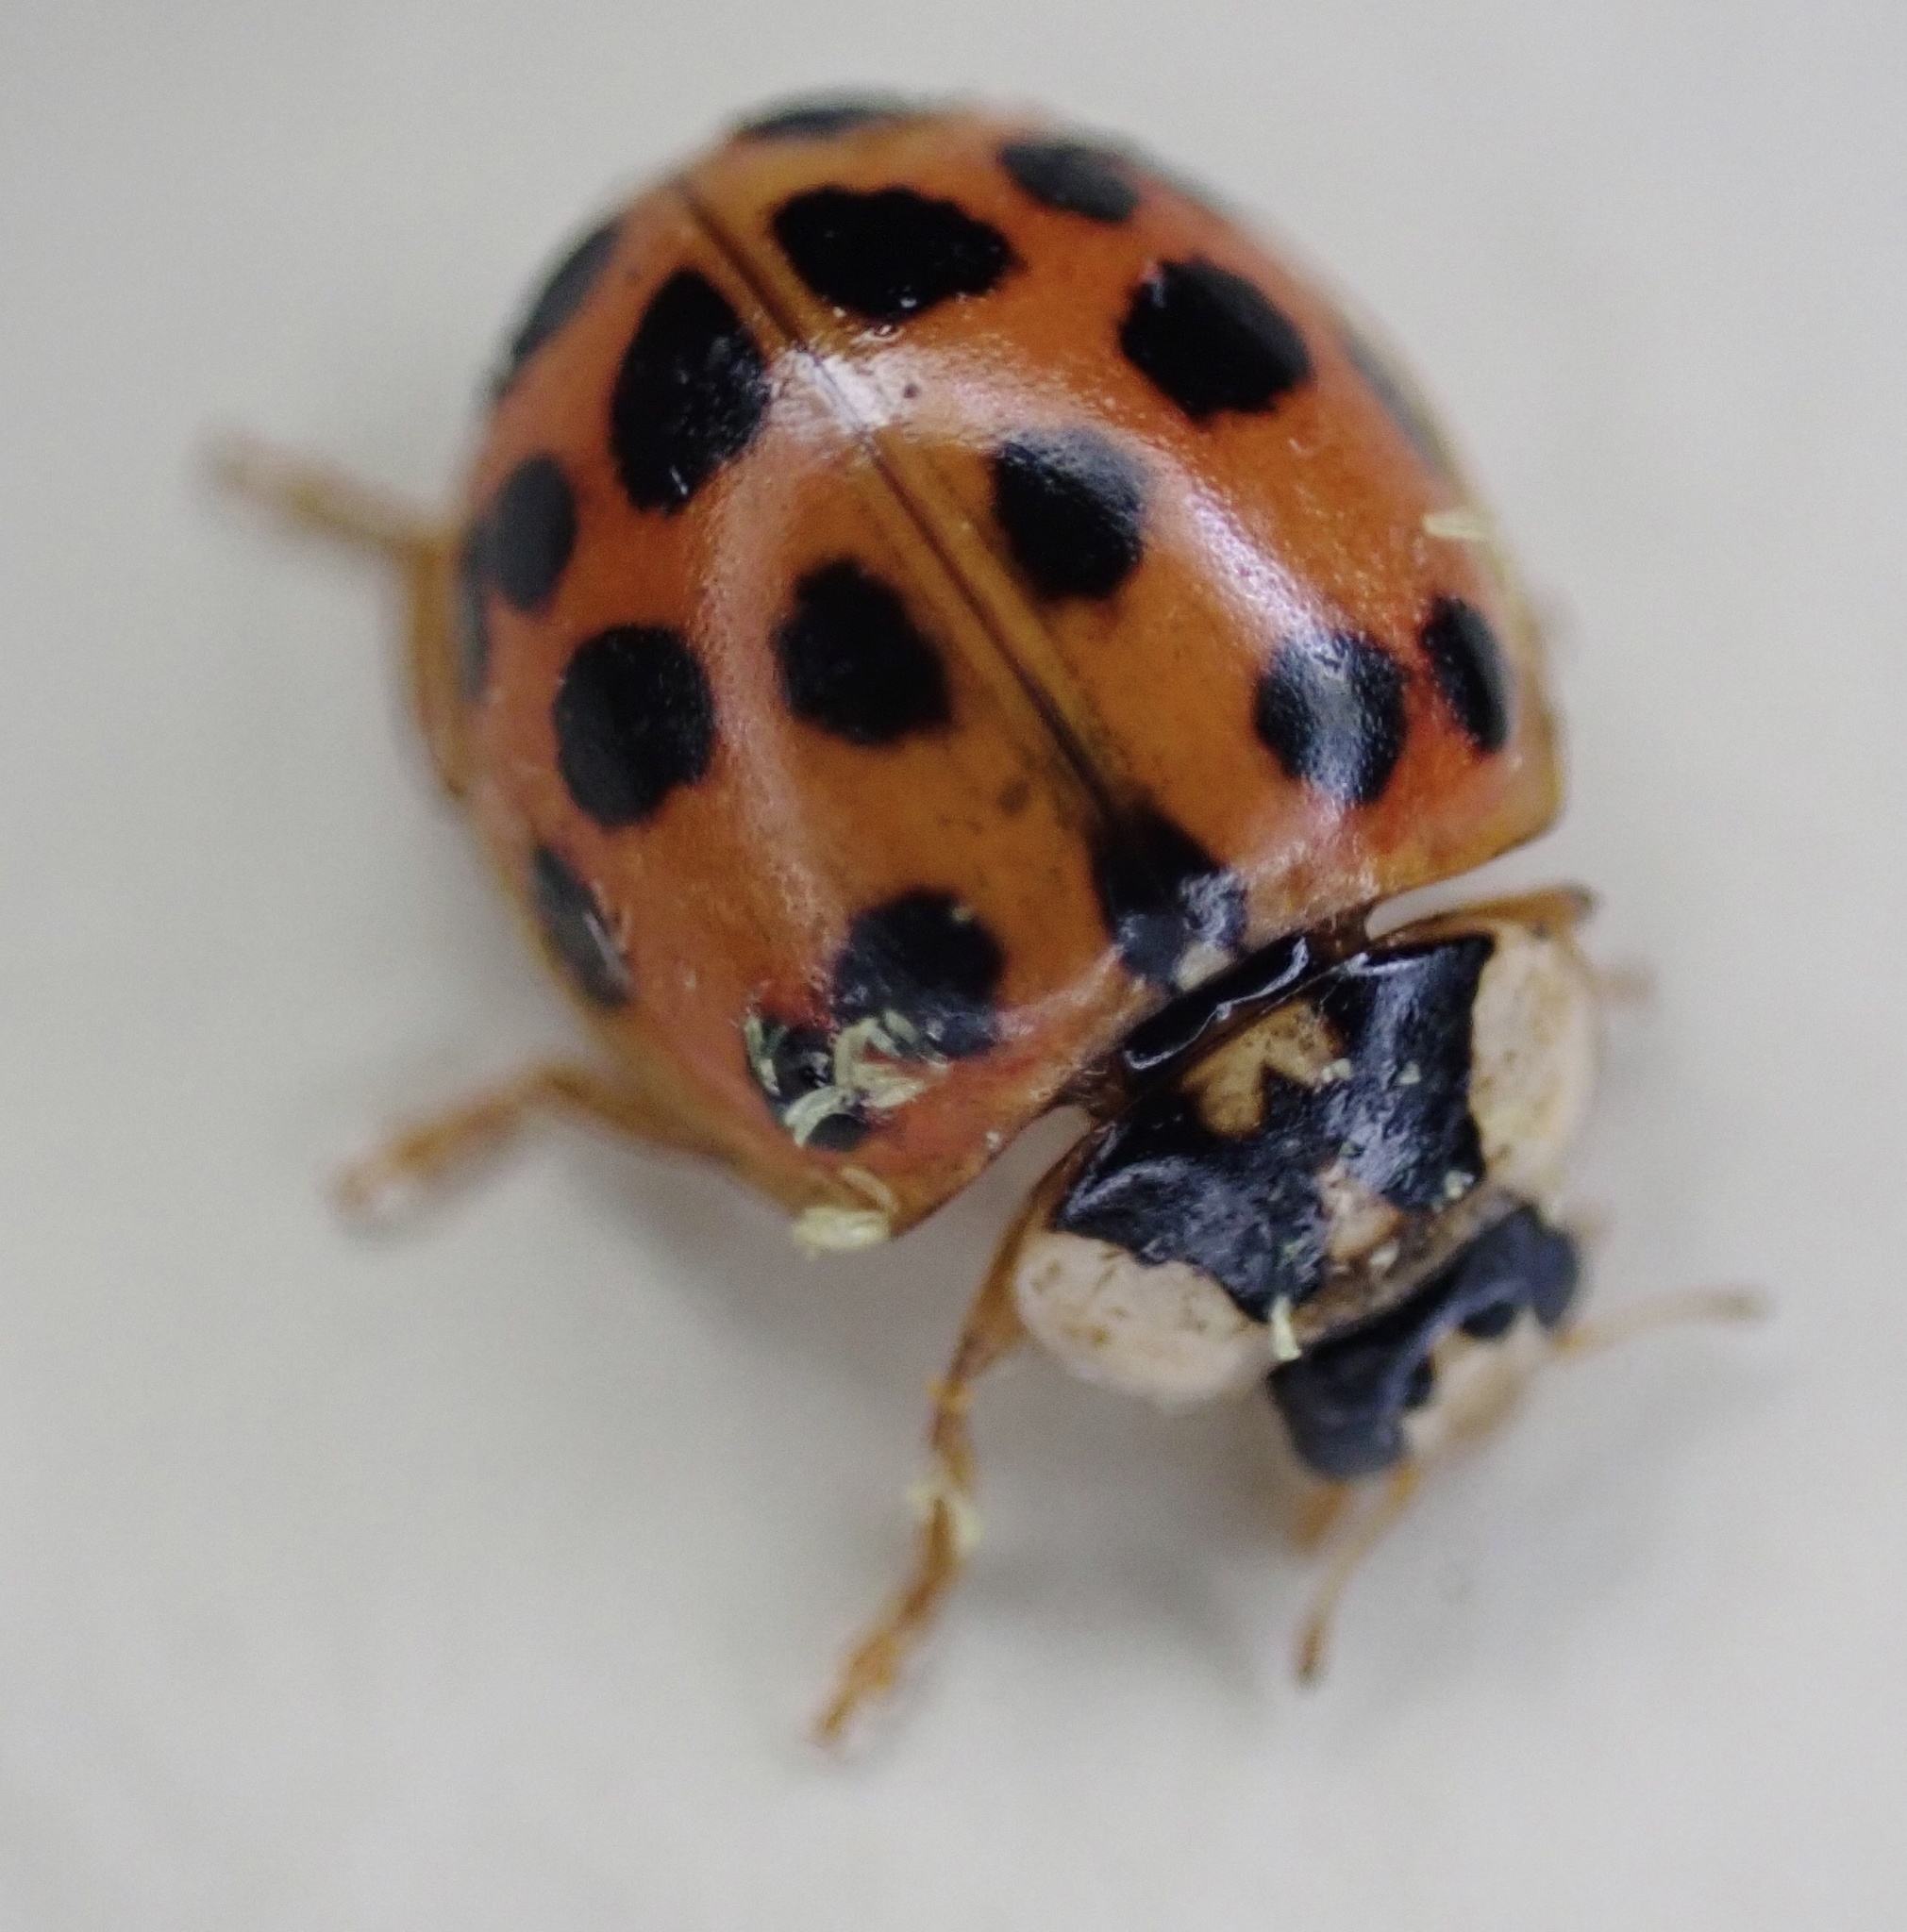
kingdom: Animalia
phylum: Arthropoda
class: Insecta
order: Coleoptera
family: Coccinellidae
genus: Harmonia
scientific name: Harmonia axyridis
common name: Harlequin ladybird
